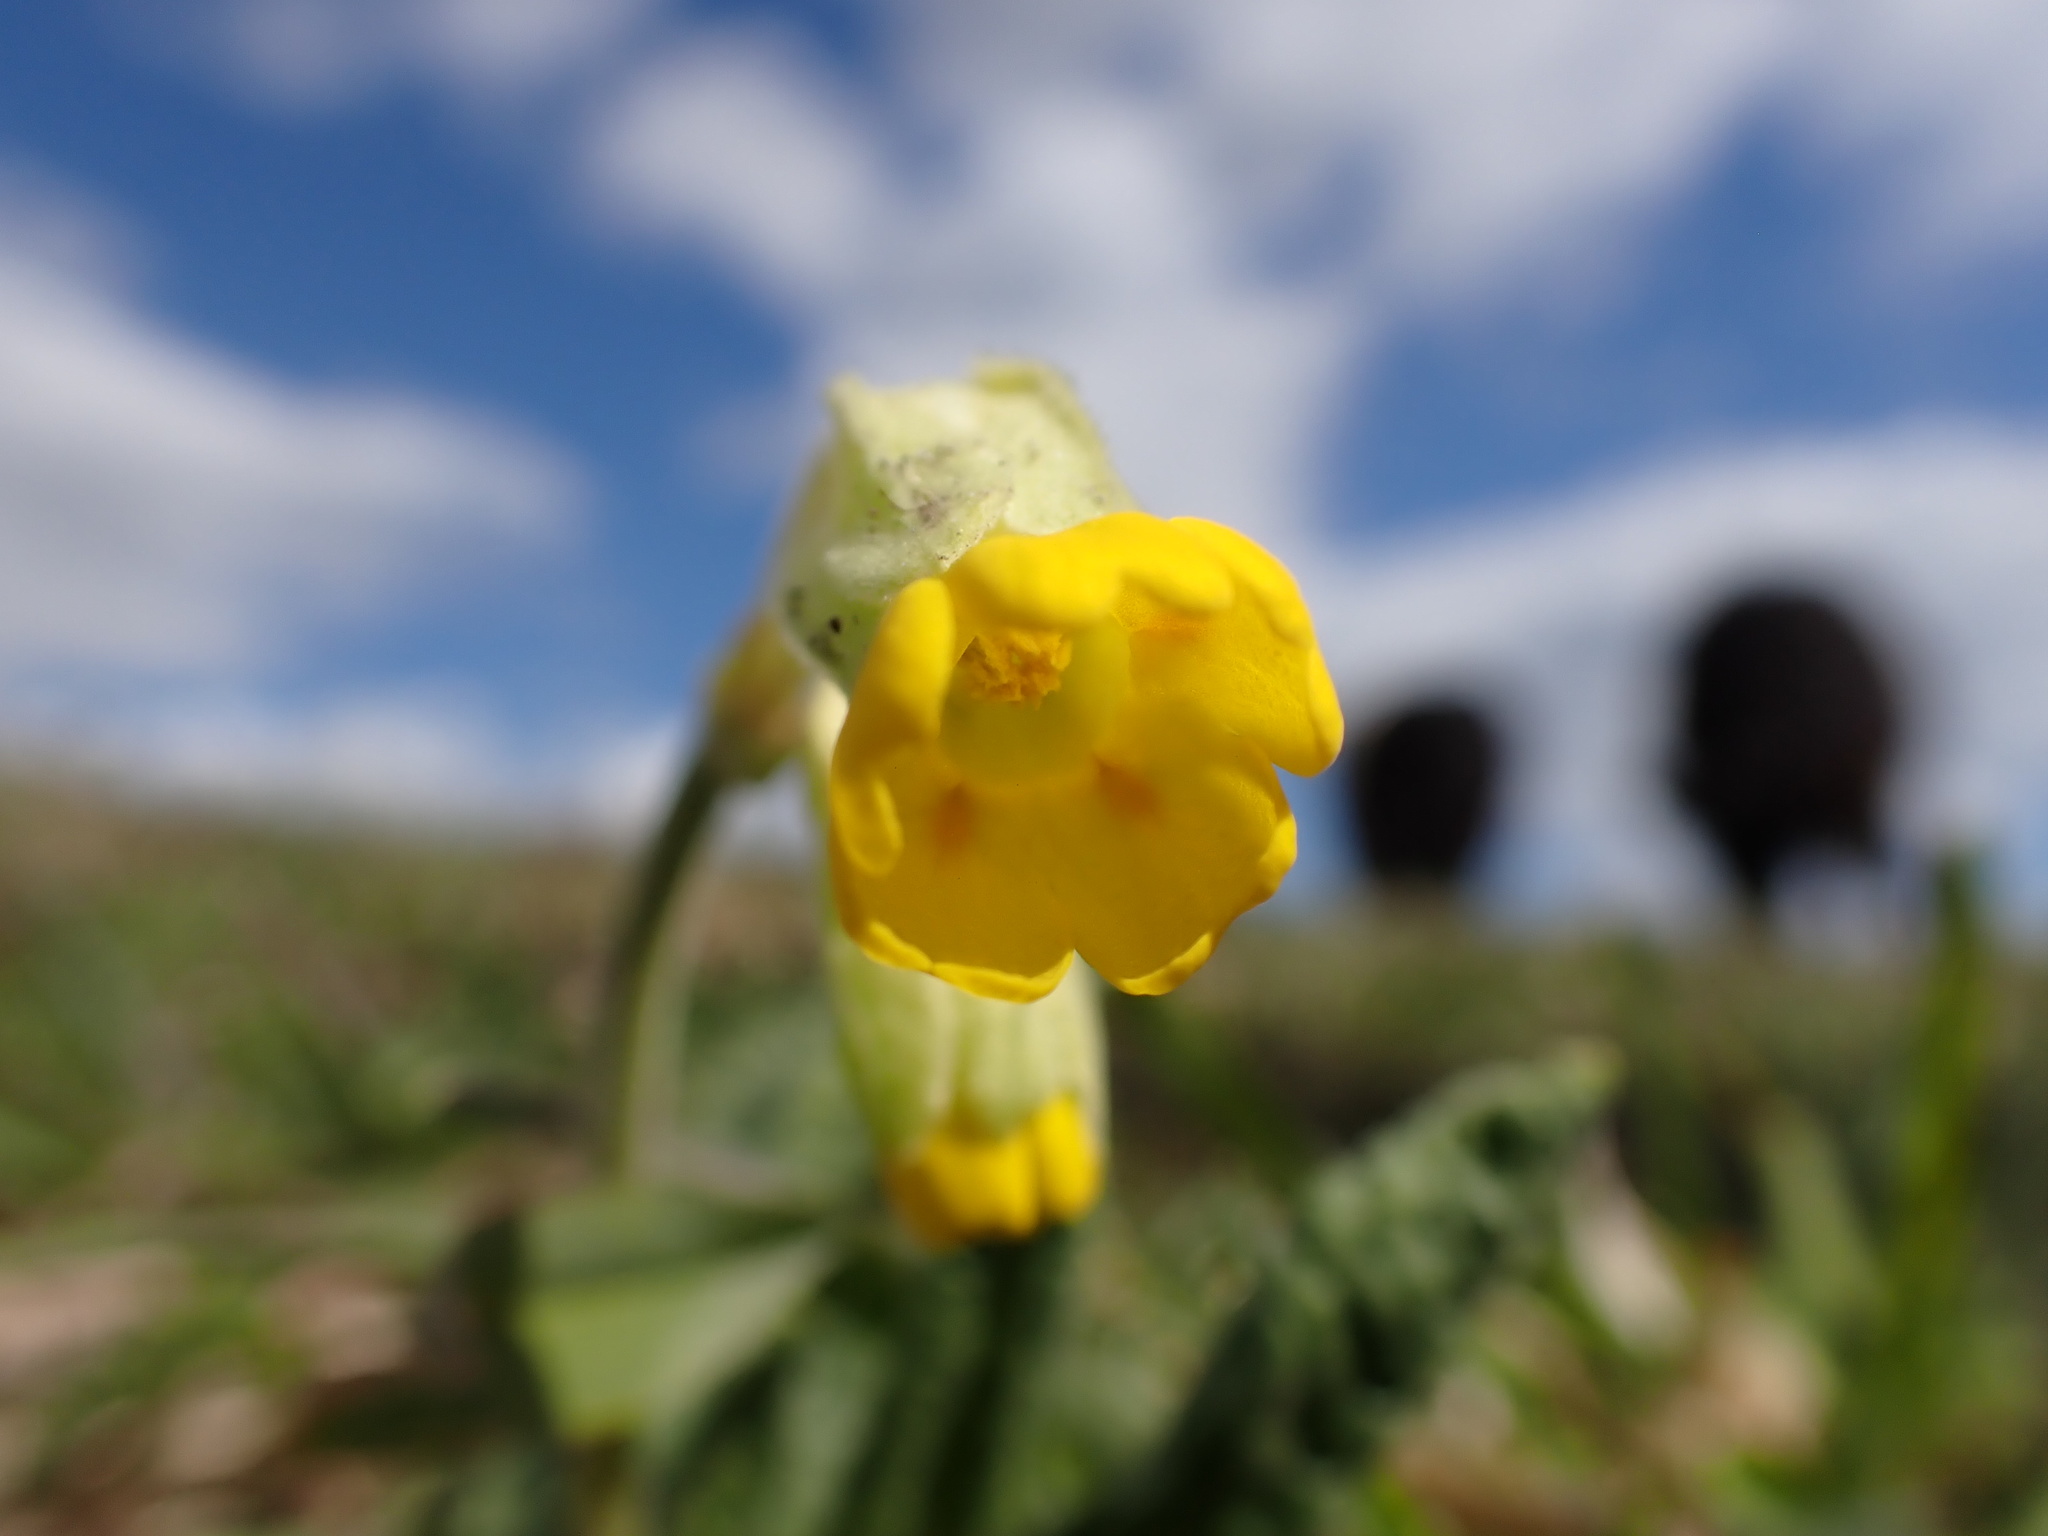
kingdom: Plantae
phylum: Tracheophyta
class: Magnoliopsida
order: Ericales
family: Primulaceae
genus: Primula
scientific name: Primula veris
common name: Cowslip
